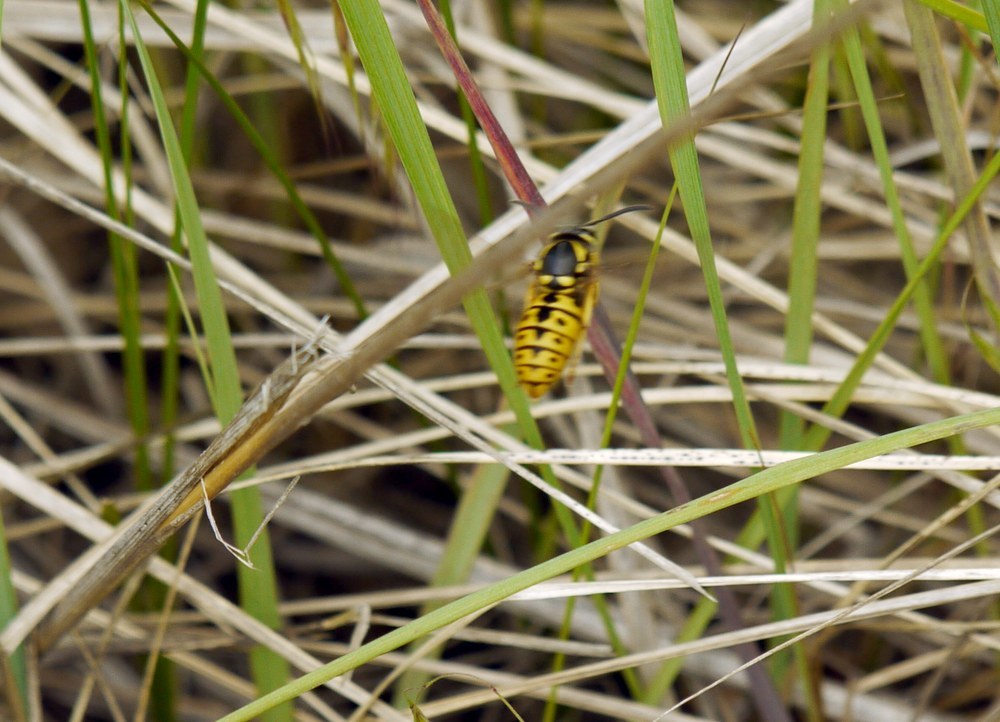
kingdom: Animalia
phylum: Arthropoda
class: Insecta
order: Hymenoptera
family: Vespidae
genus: Vespula
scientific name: Vespula germanica
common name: German wasp
